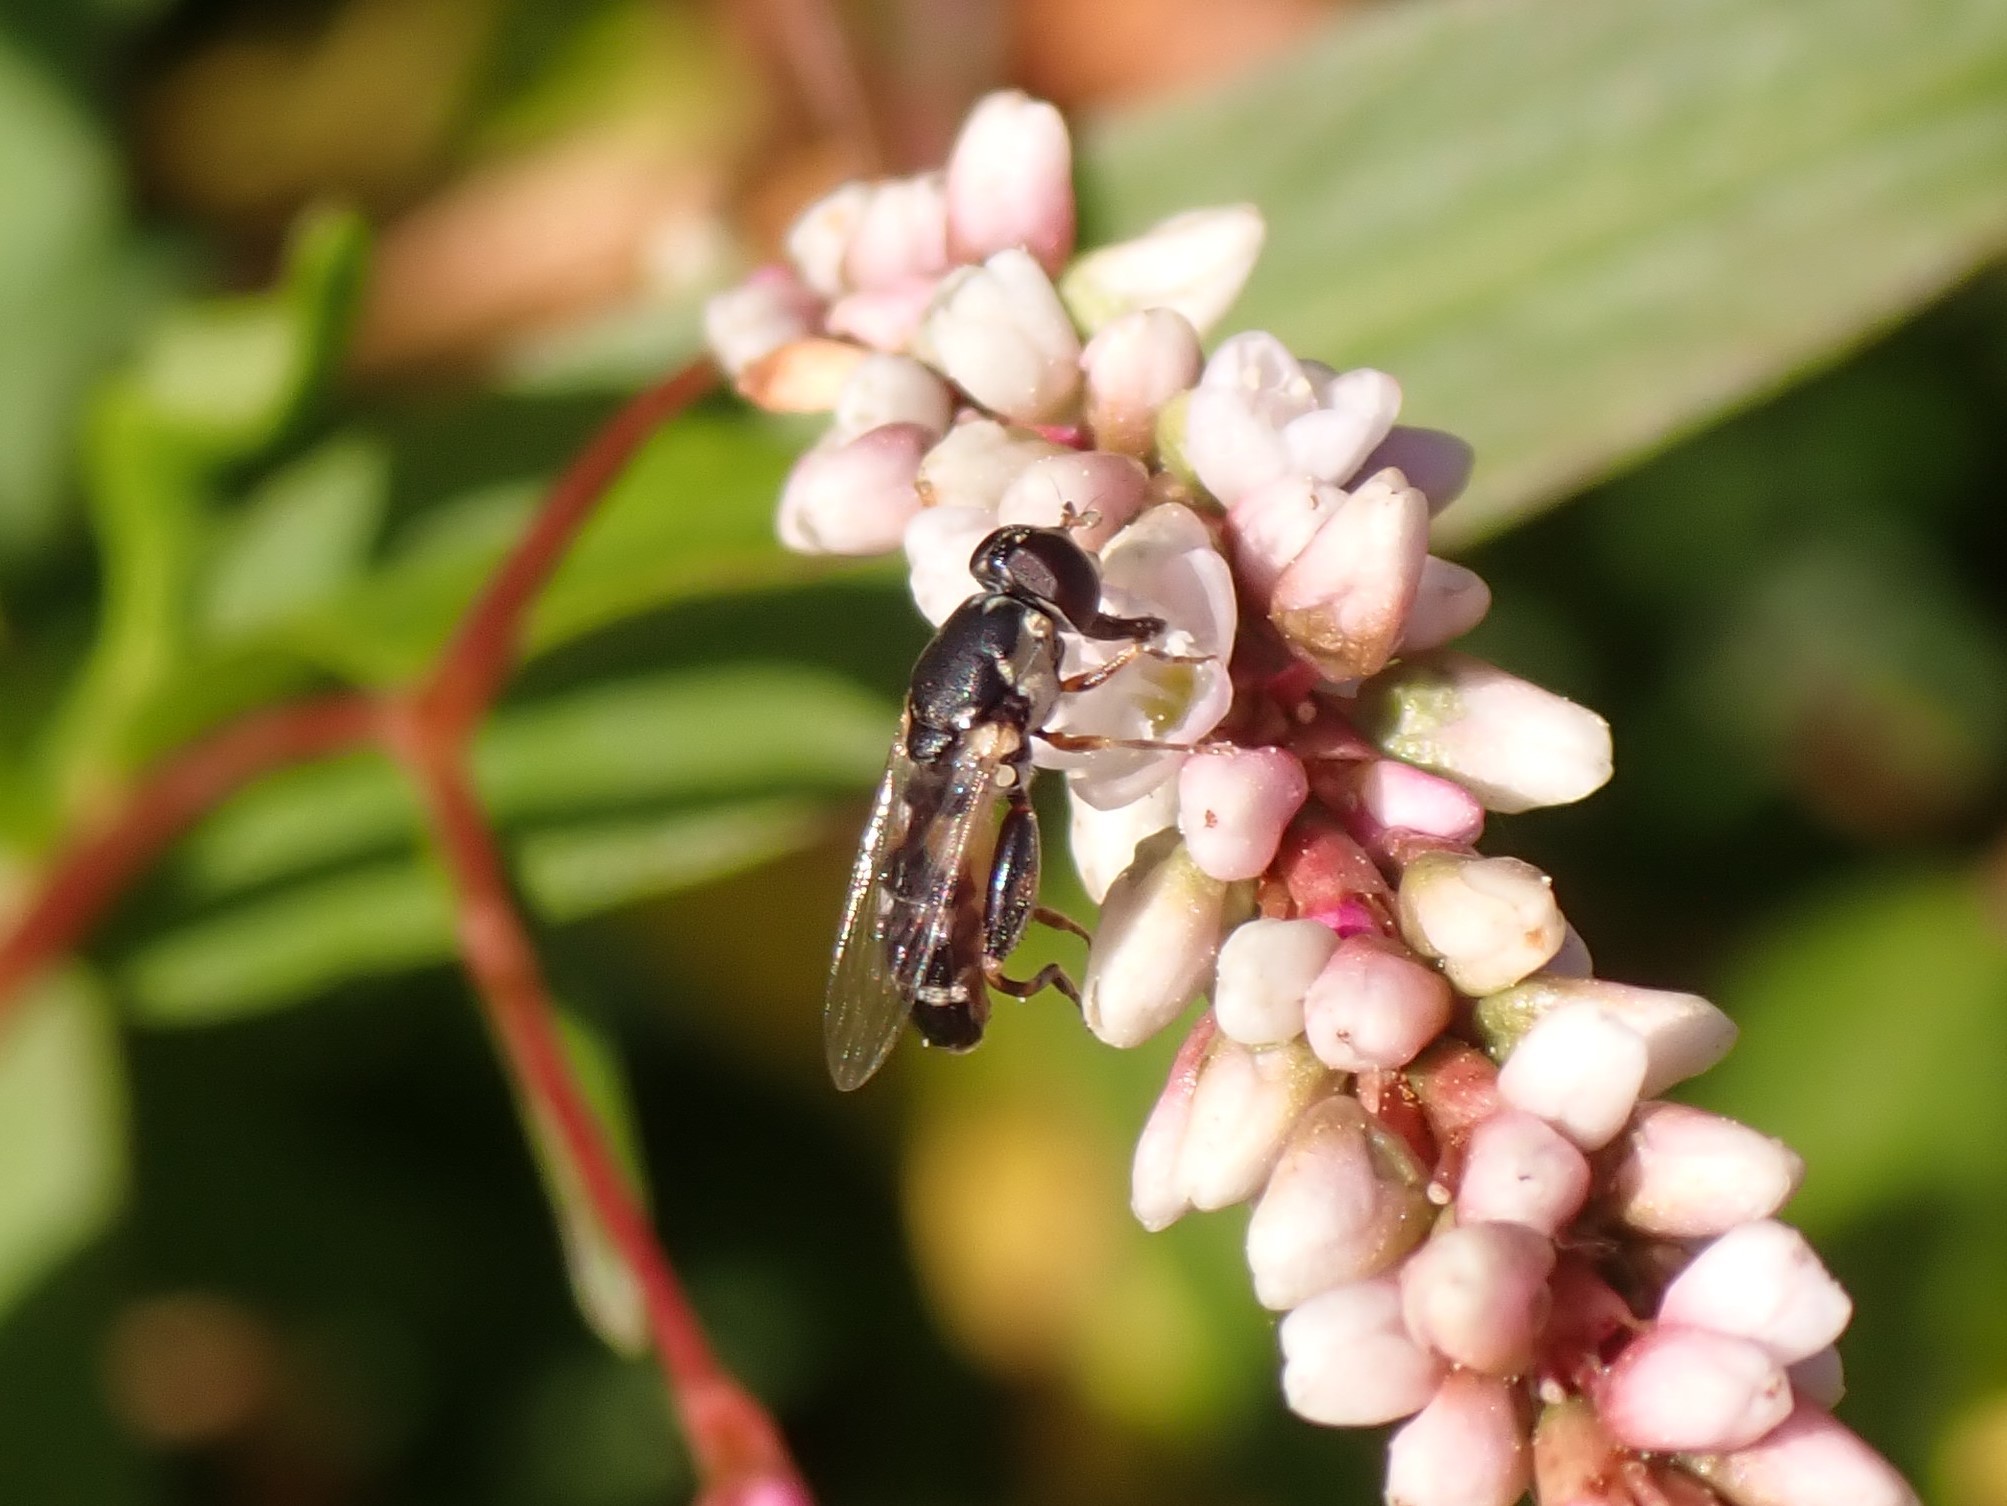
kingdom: Animalia
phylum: Arthropoda
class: Insecta
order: Diptera
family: Syrphidae
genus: Syritta
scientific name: Syritta pipiens
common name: Hover fly
